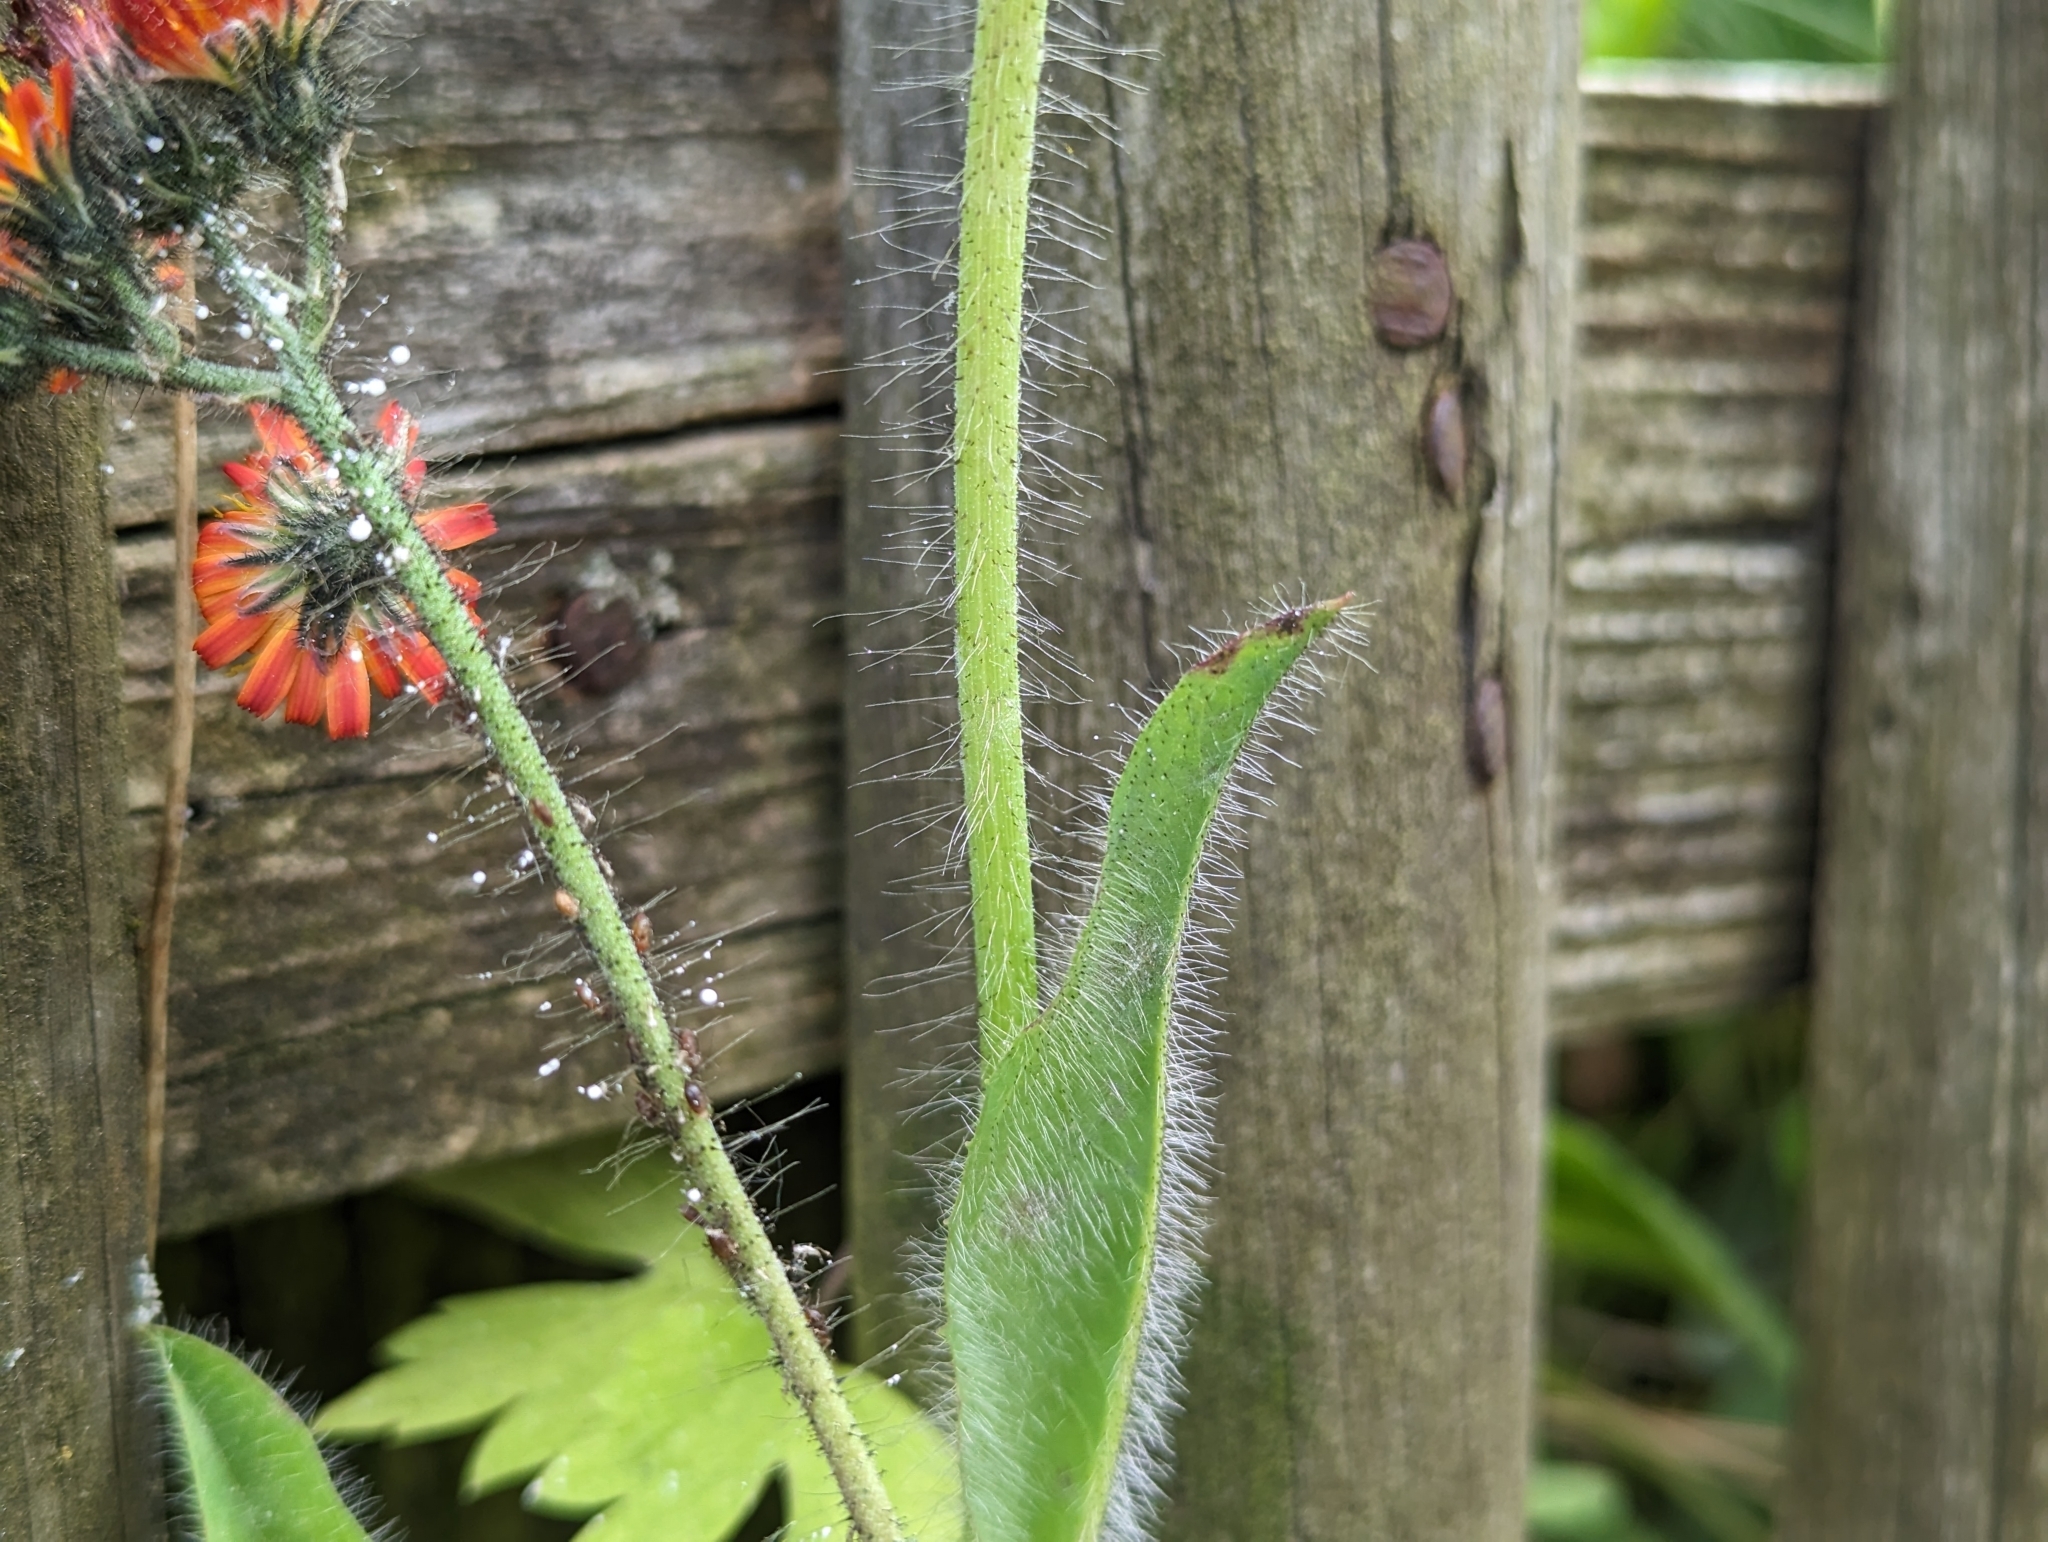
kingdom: Plantae
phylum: Tracheophyta
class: Magnoliopsida
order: Asterales
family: Asteraceae
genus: Pilosella
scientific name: Pilosella aurantiaca
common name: Fox-and-cubs
